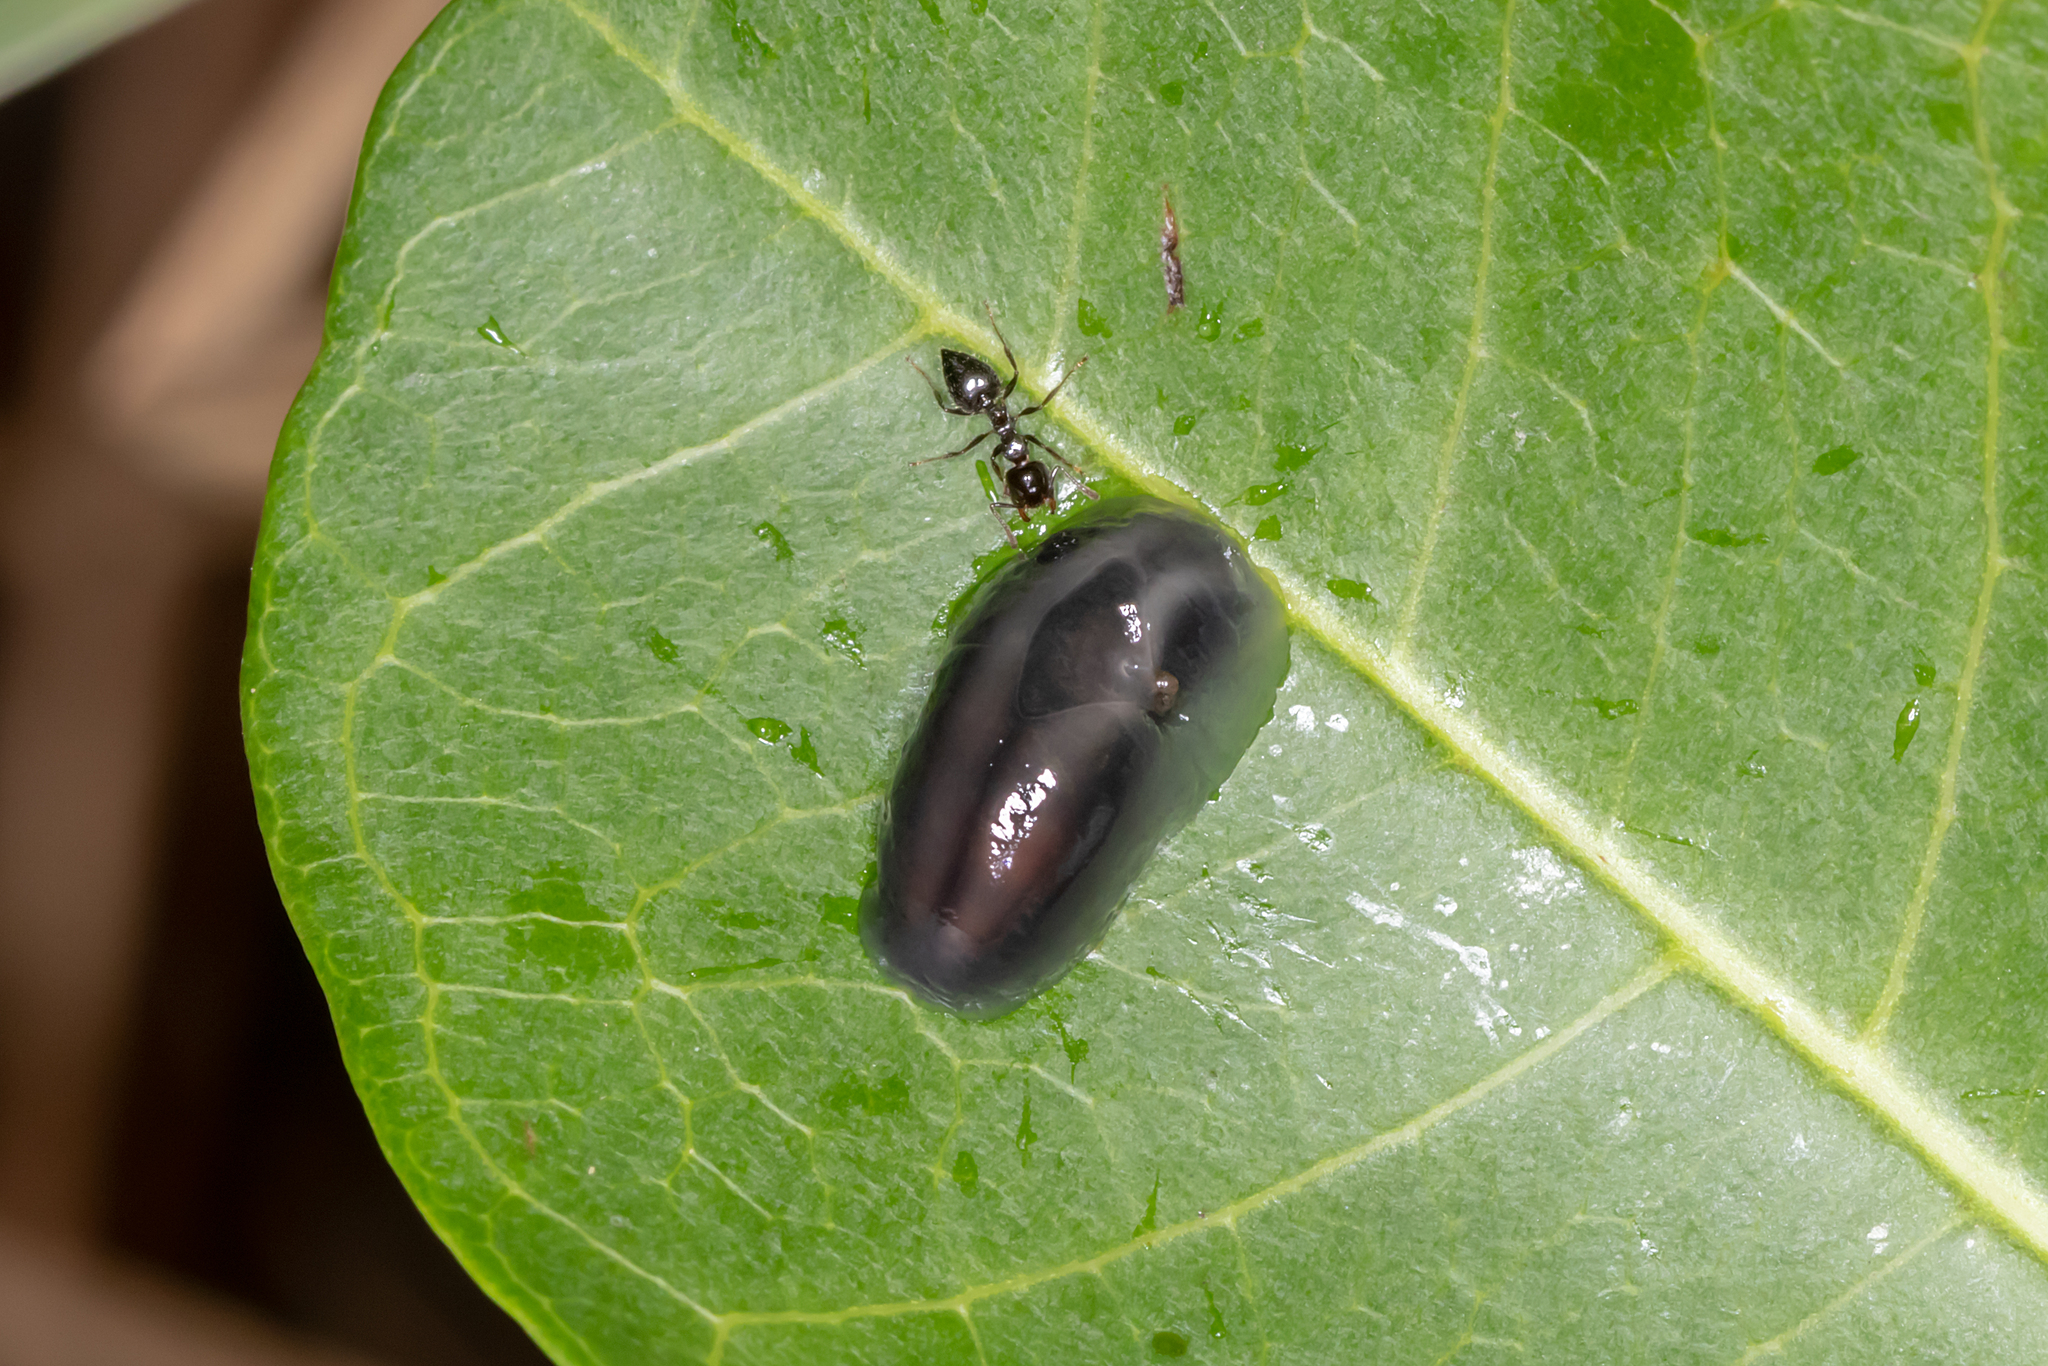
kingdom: Animalia
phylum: Mollusca
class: Gastropoda
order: Stylommatophora
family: Athoracophoridae
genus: Triboniophorus
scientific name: Triboniophorus graeffei
